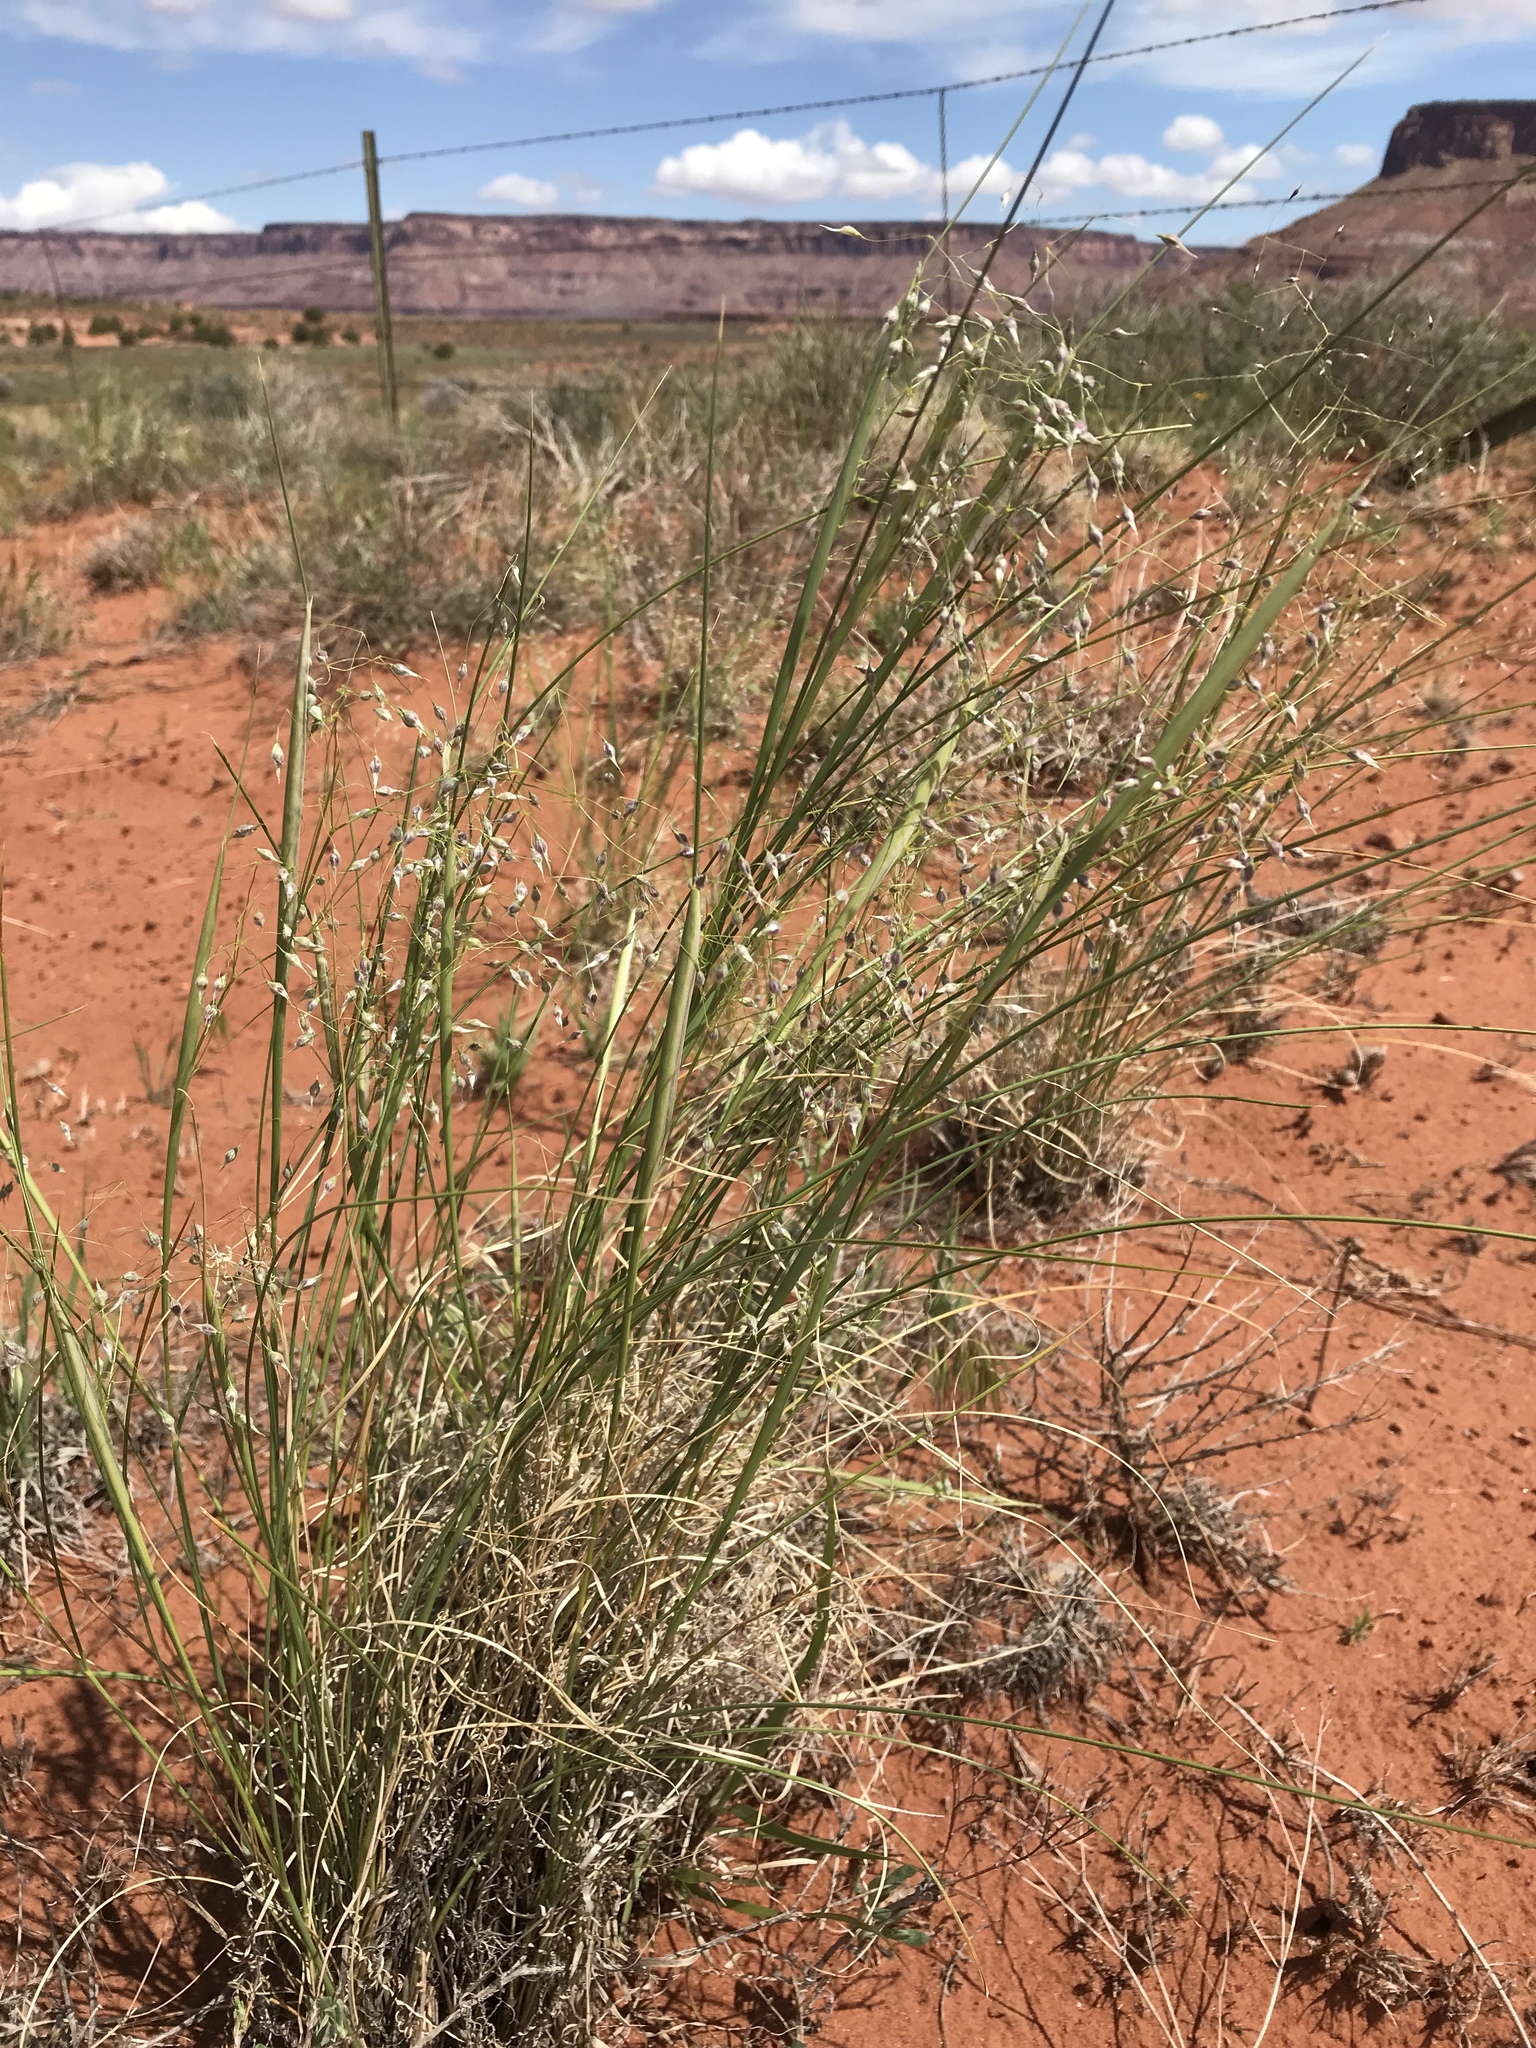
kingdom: Plantae
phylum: Tracheophyta
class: Liliopsida
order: Poales
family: Poaceae
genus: Eriocoma
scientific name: Eriocoma hymenoides
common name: Indian mountain ricegrass
